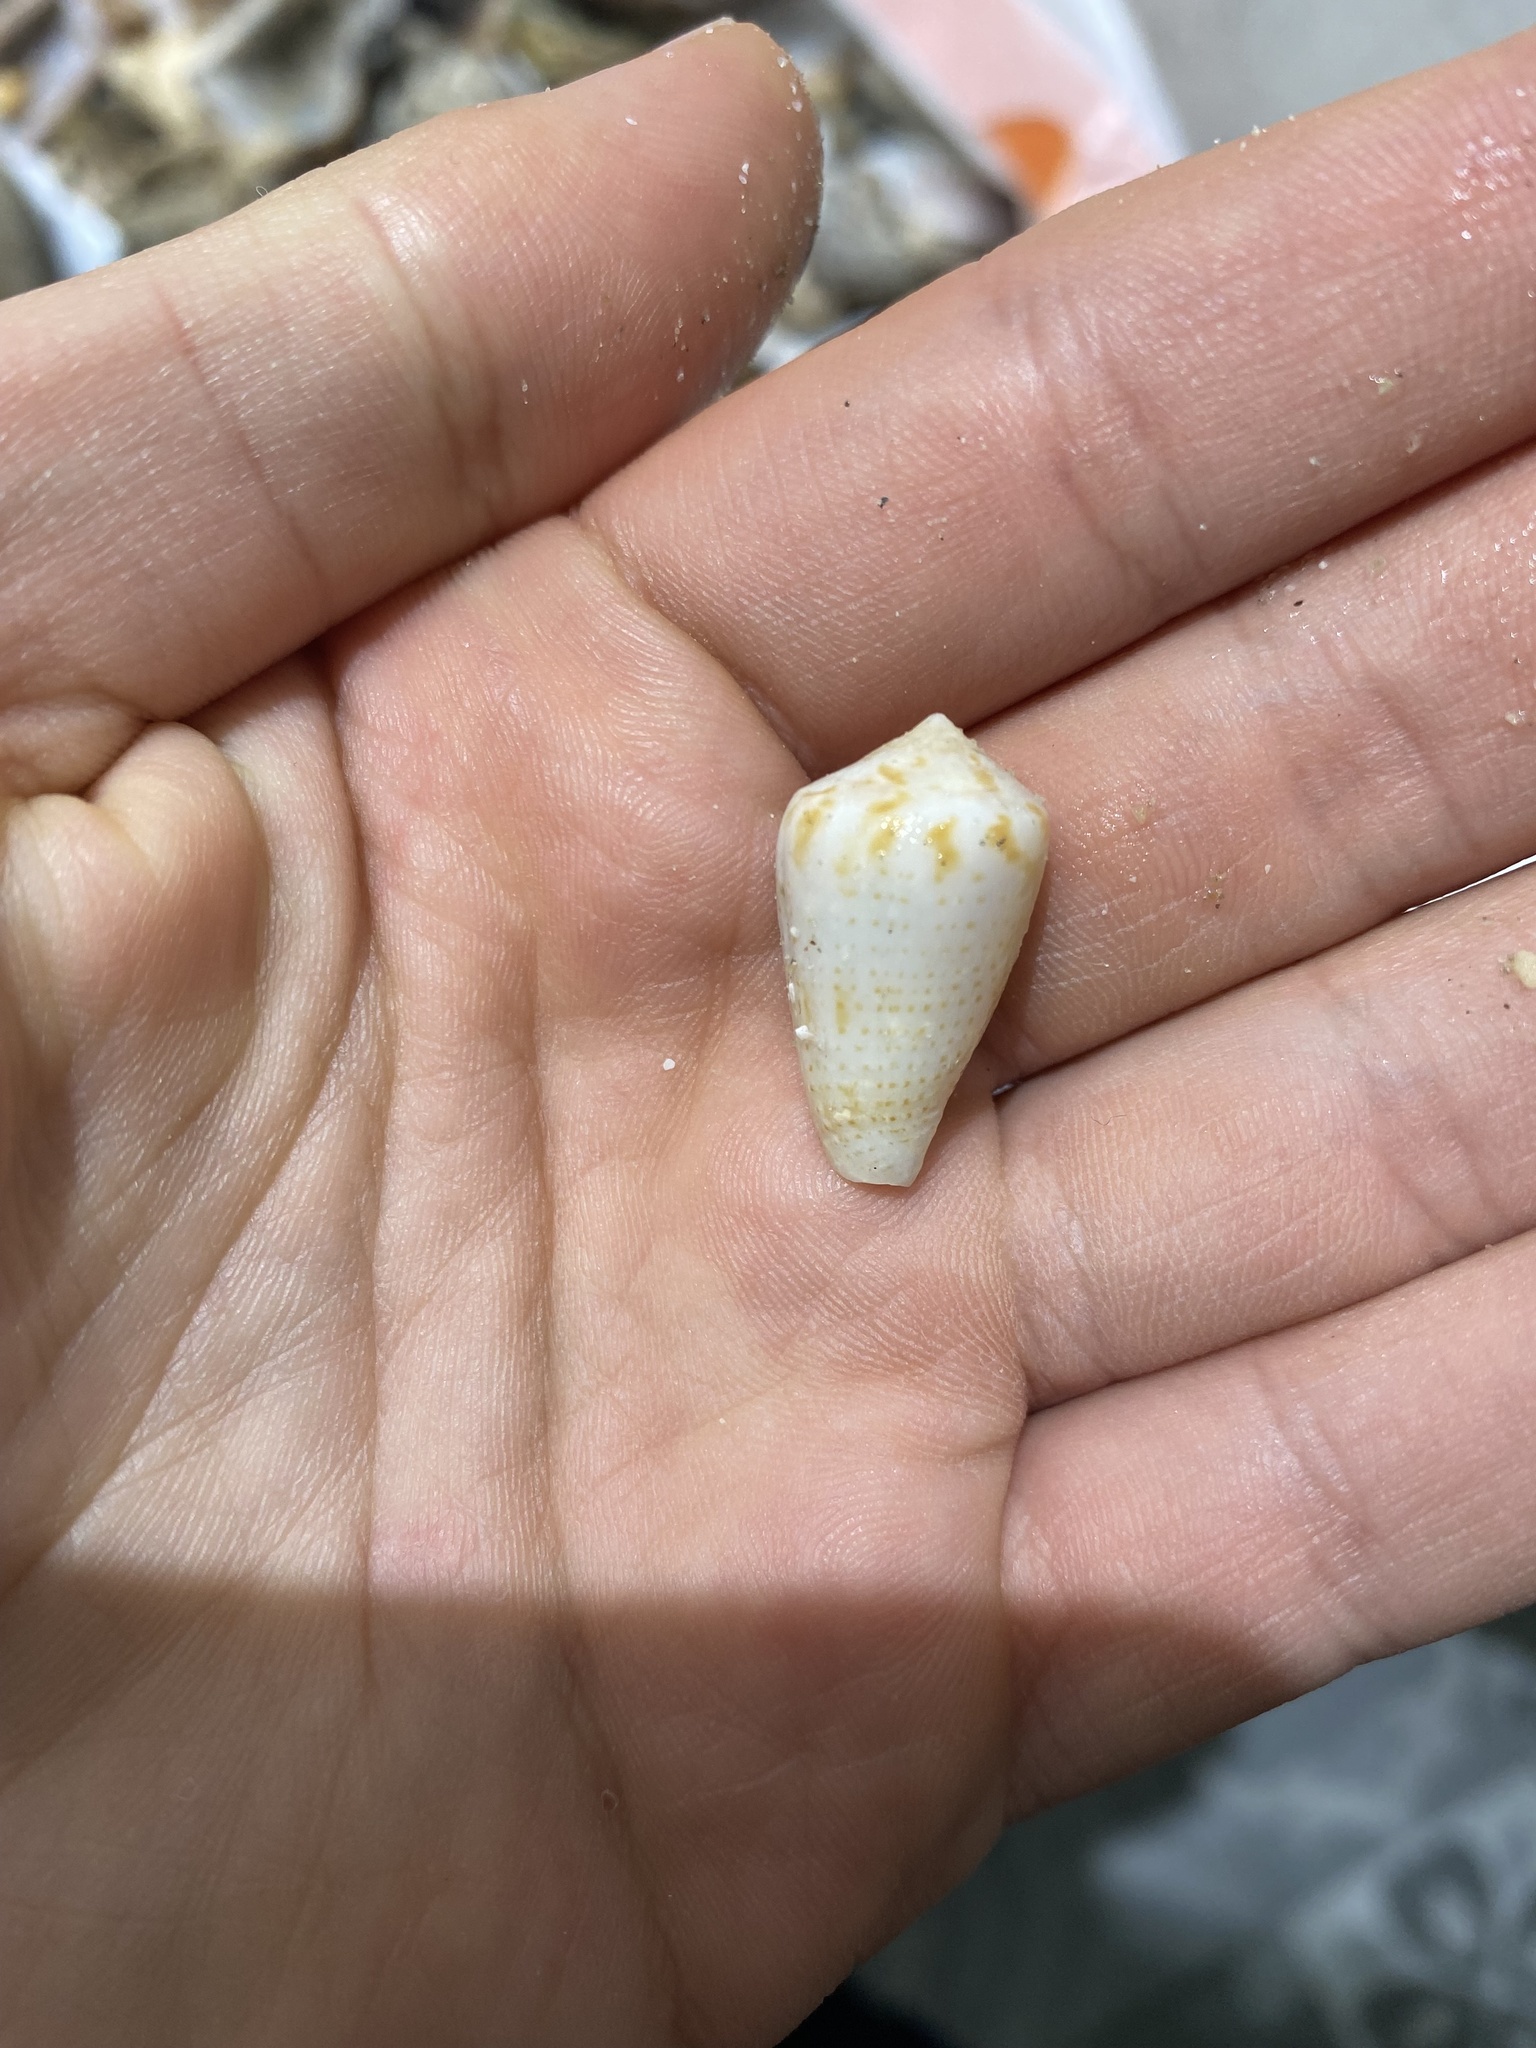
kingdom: Animalia
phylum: Mollusca
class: Gastropoda
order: Neogastropoda
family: Conidae
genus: Conasprella
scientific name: Conasprella perplexa
